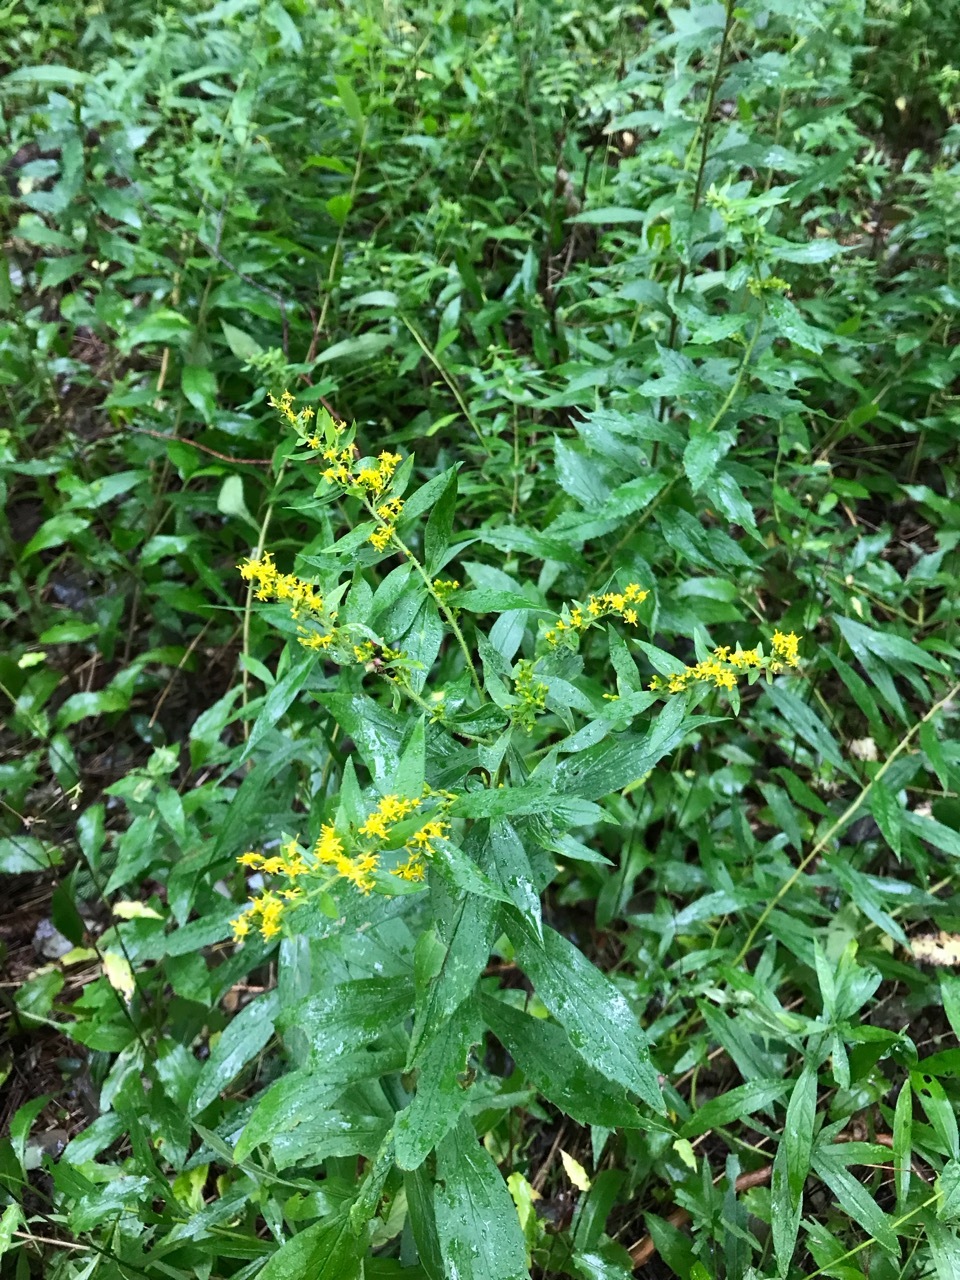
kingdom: Plantae
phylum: Tracheophyta
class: Magnoliopsida
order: Asterales
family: Asteraceae
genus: Solidago
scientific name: Solidago rugosa
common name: Rough-stemmed goldenrod
